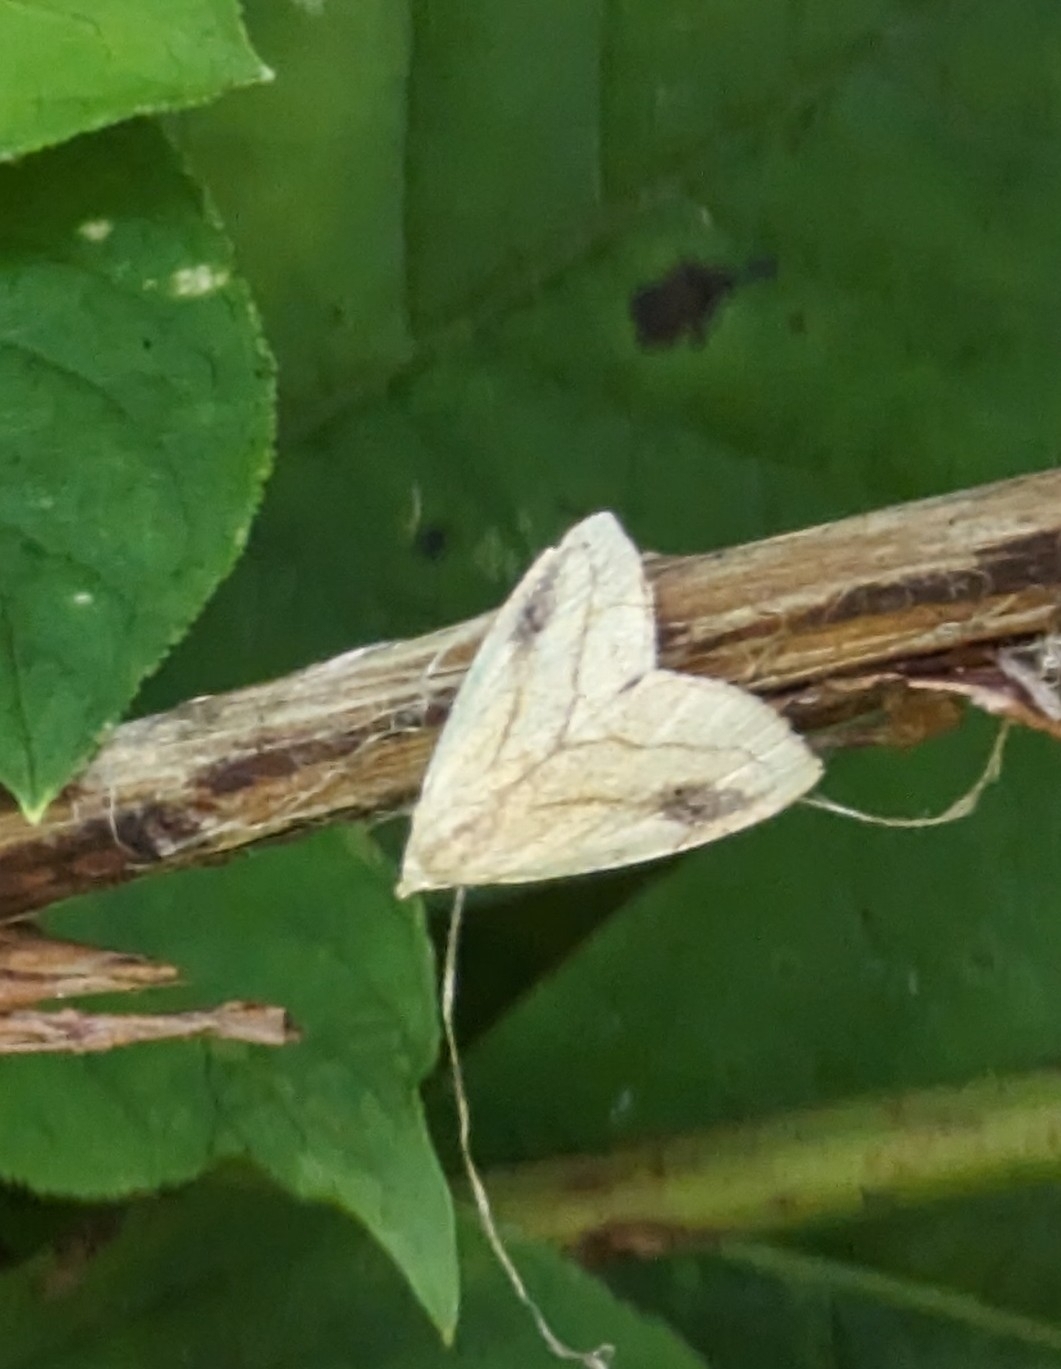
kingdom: Animalia
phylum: Arthropoda
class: Insecta
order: Lepidoptera
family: Erebidae
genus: Rivula
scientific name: Rivula propinqualis
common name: Spotted grass moth
